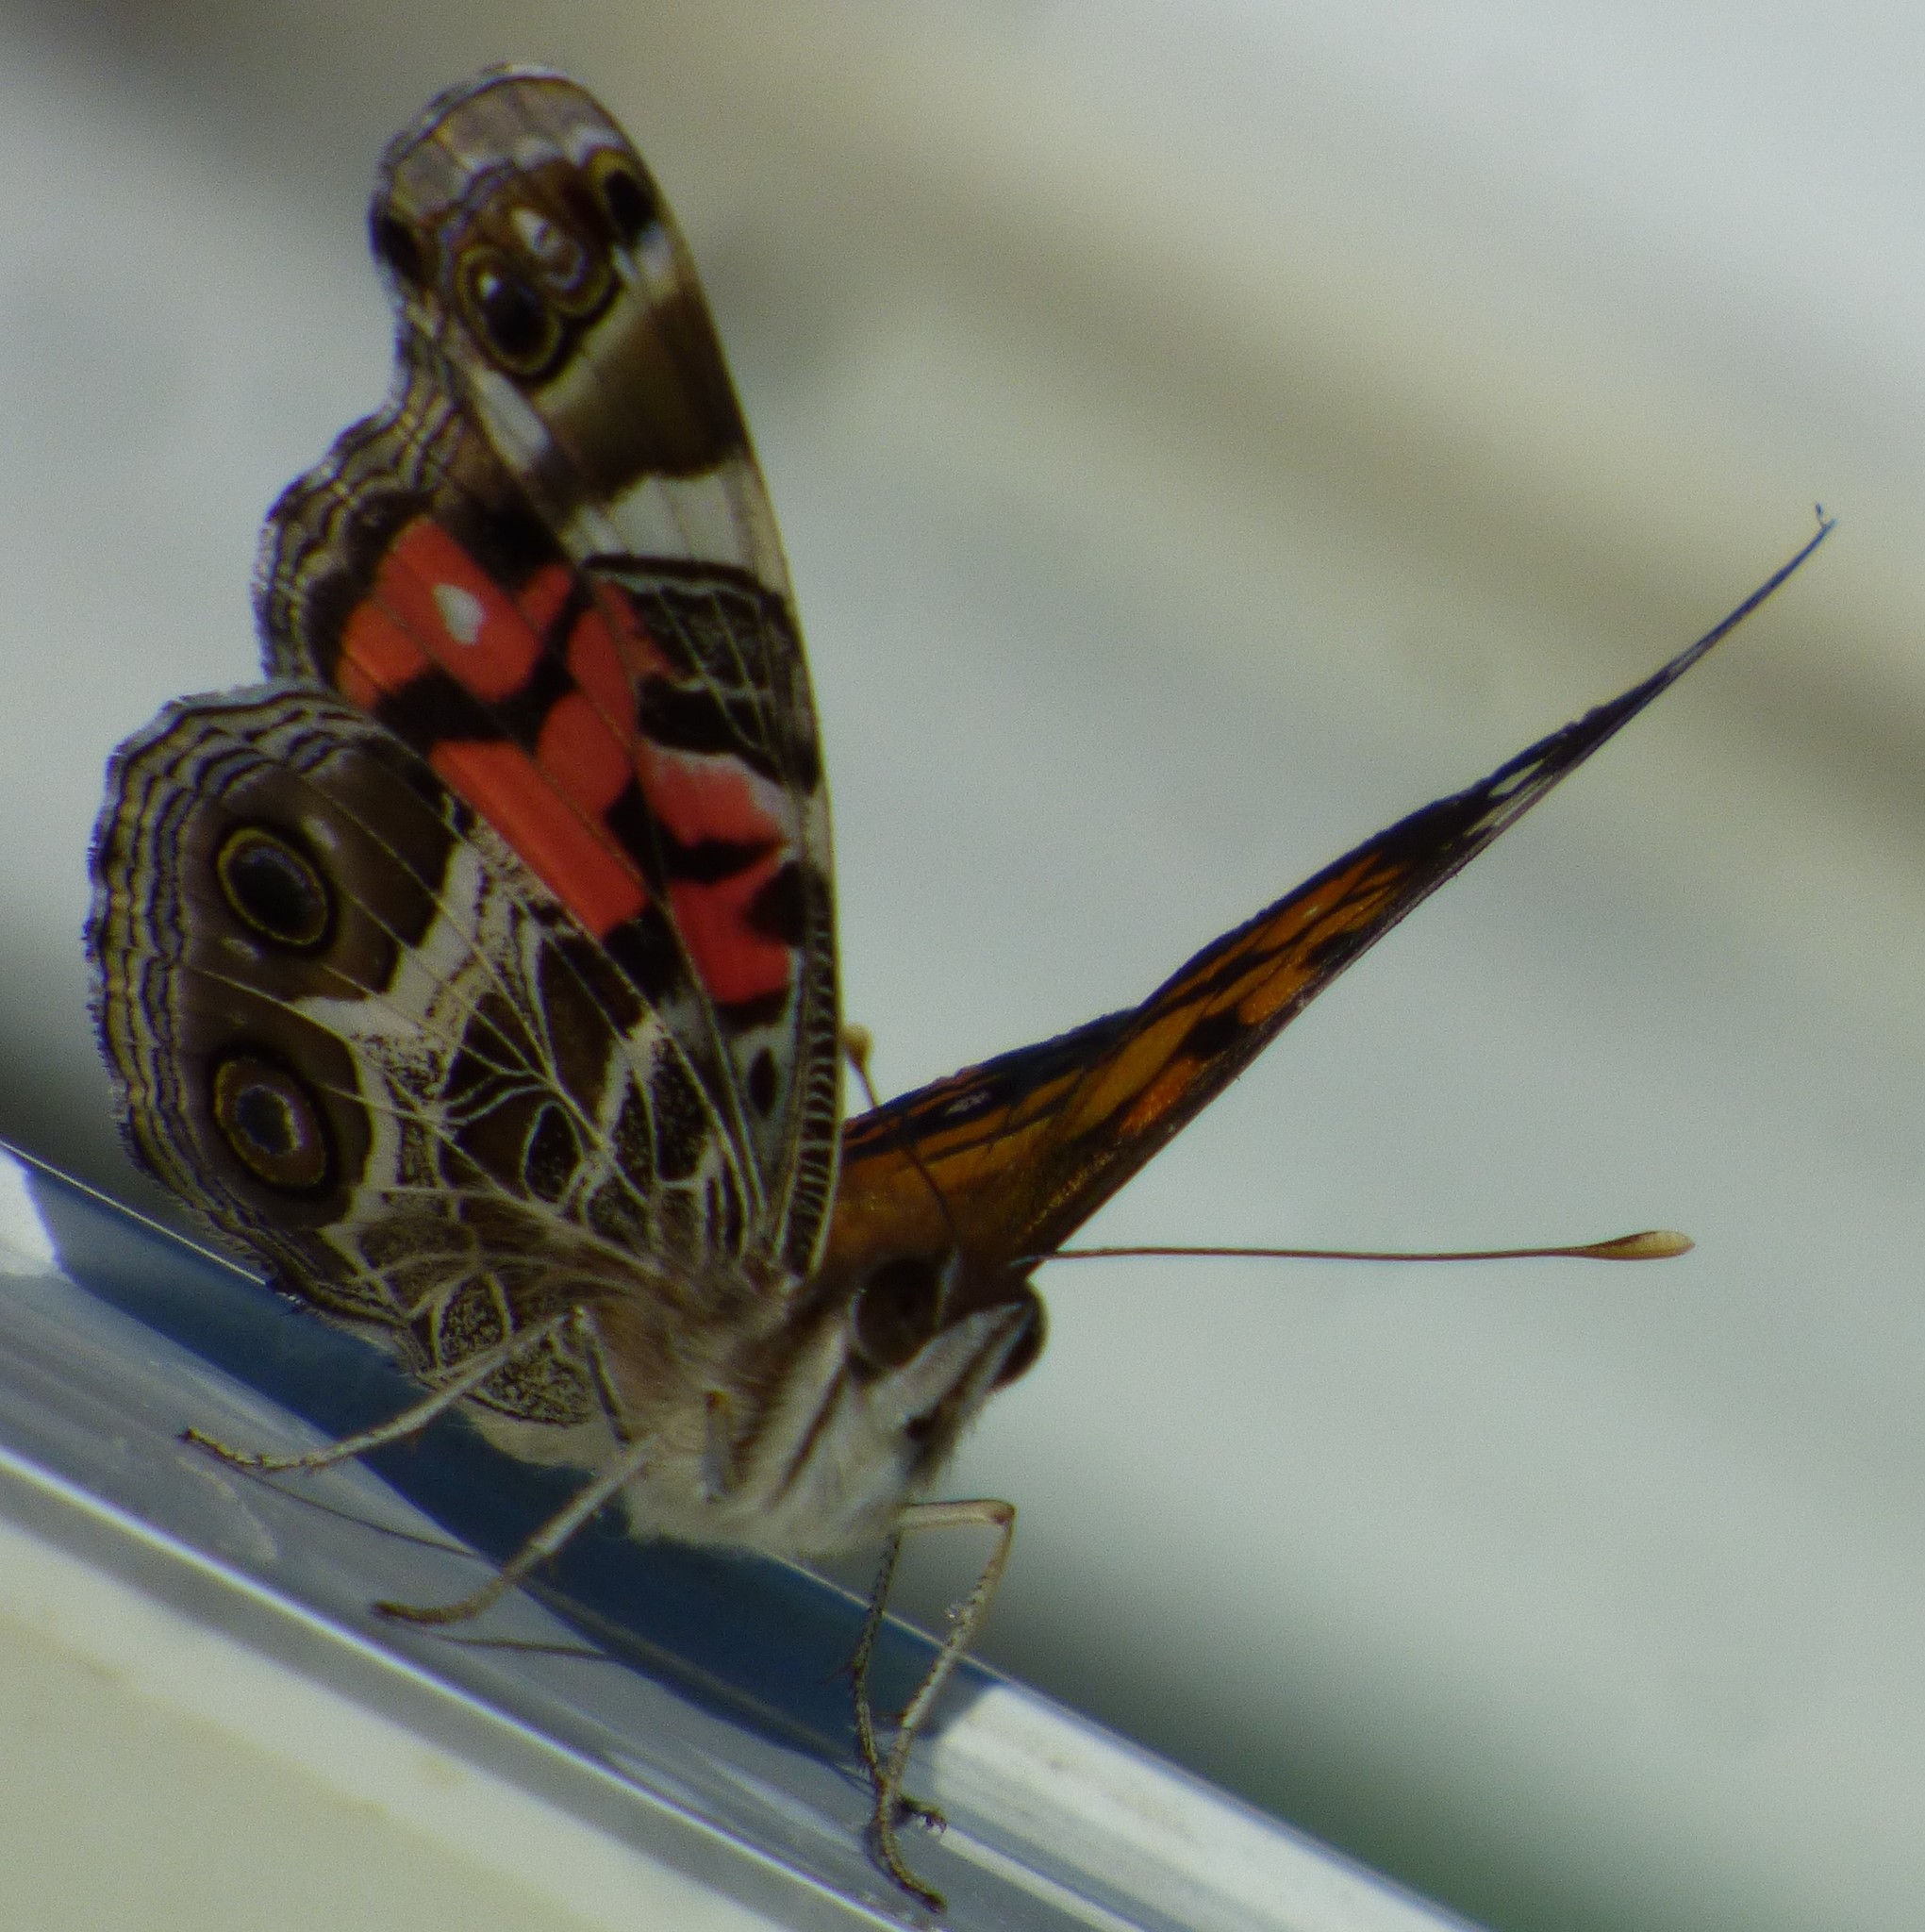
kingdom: Animalia
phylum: Arthropoda
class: Insecta
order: Lepidoptera
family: Nymphalidae
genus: Vanessa
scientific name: Vanessa virginiensis
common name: American lady
